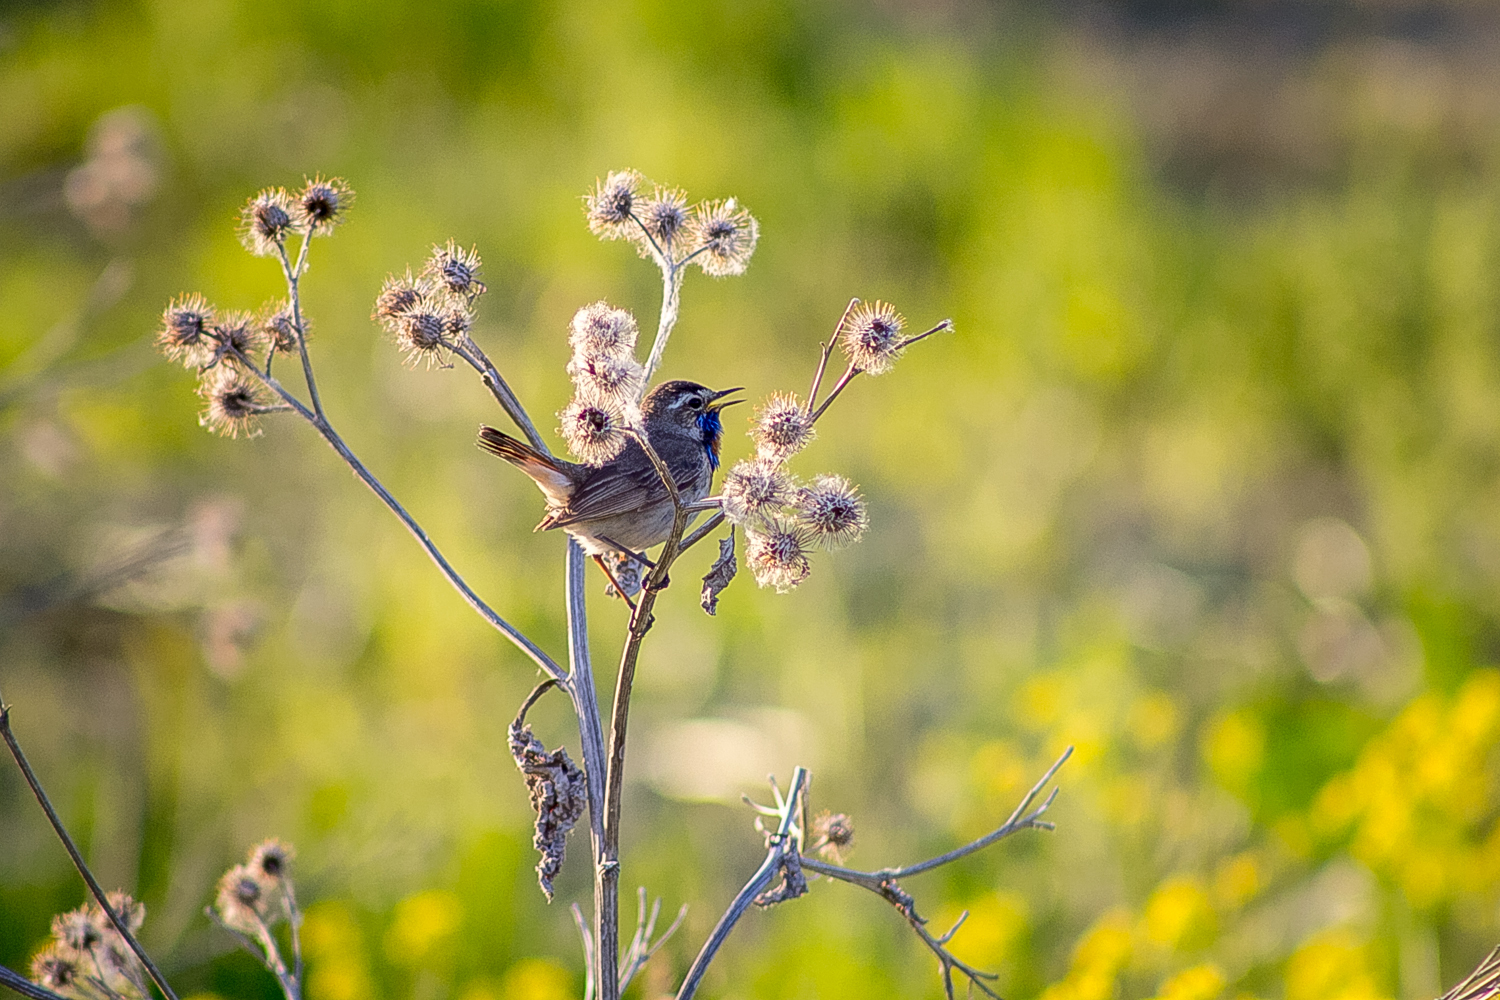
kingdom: Animalia
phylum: Chordata
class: Aves
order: Passeriformes
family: Muscicapidae
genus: Luscinia
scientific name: Luscinia svecica
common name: Bluethroat
